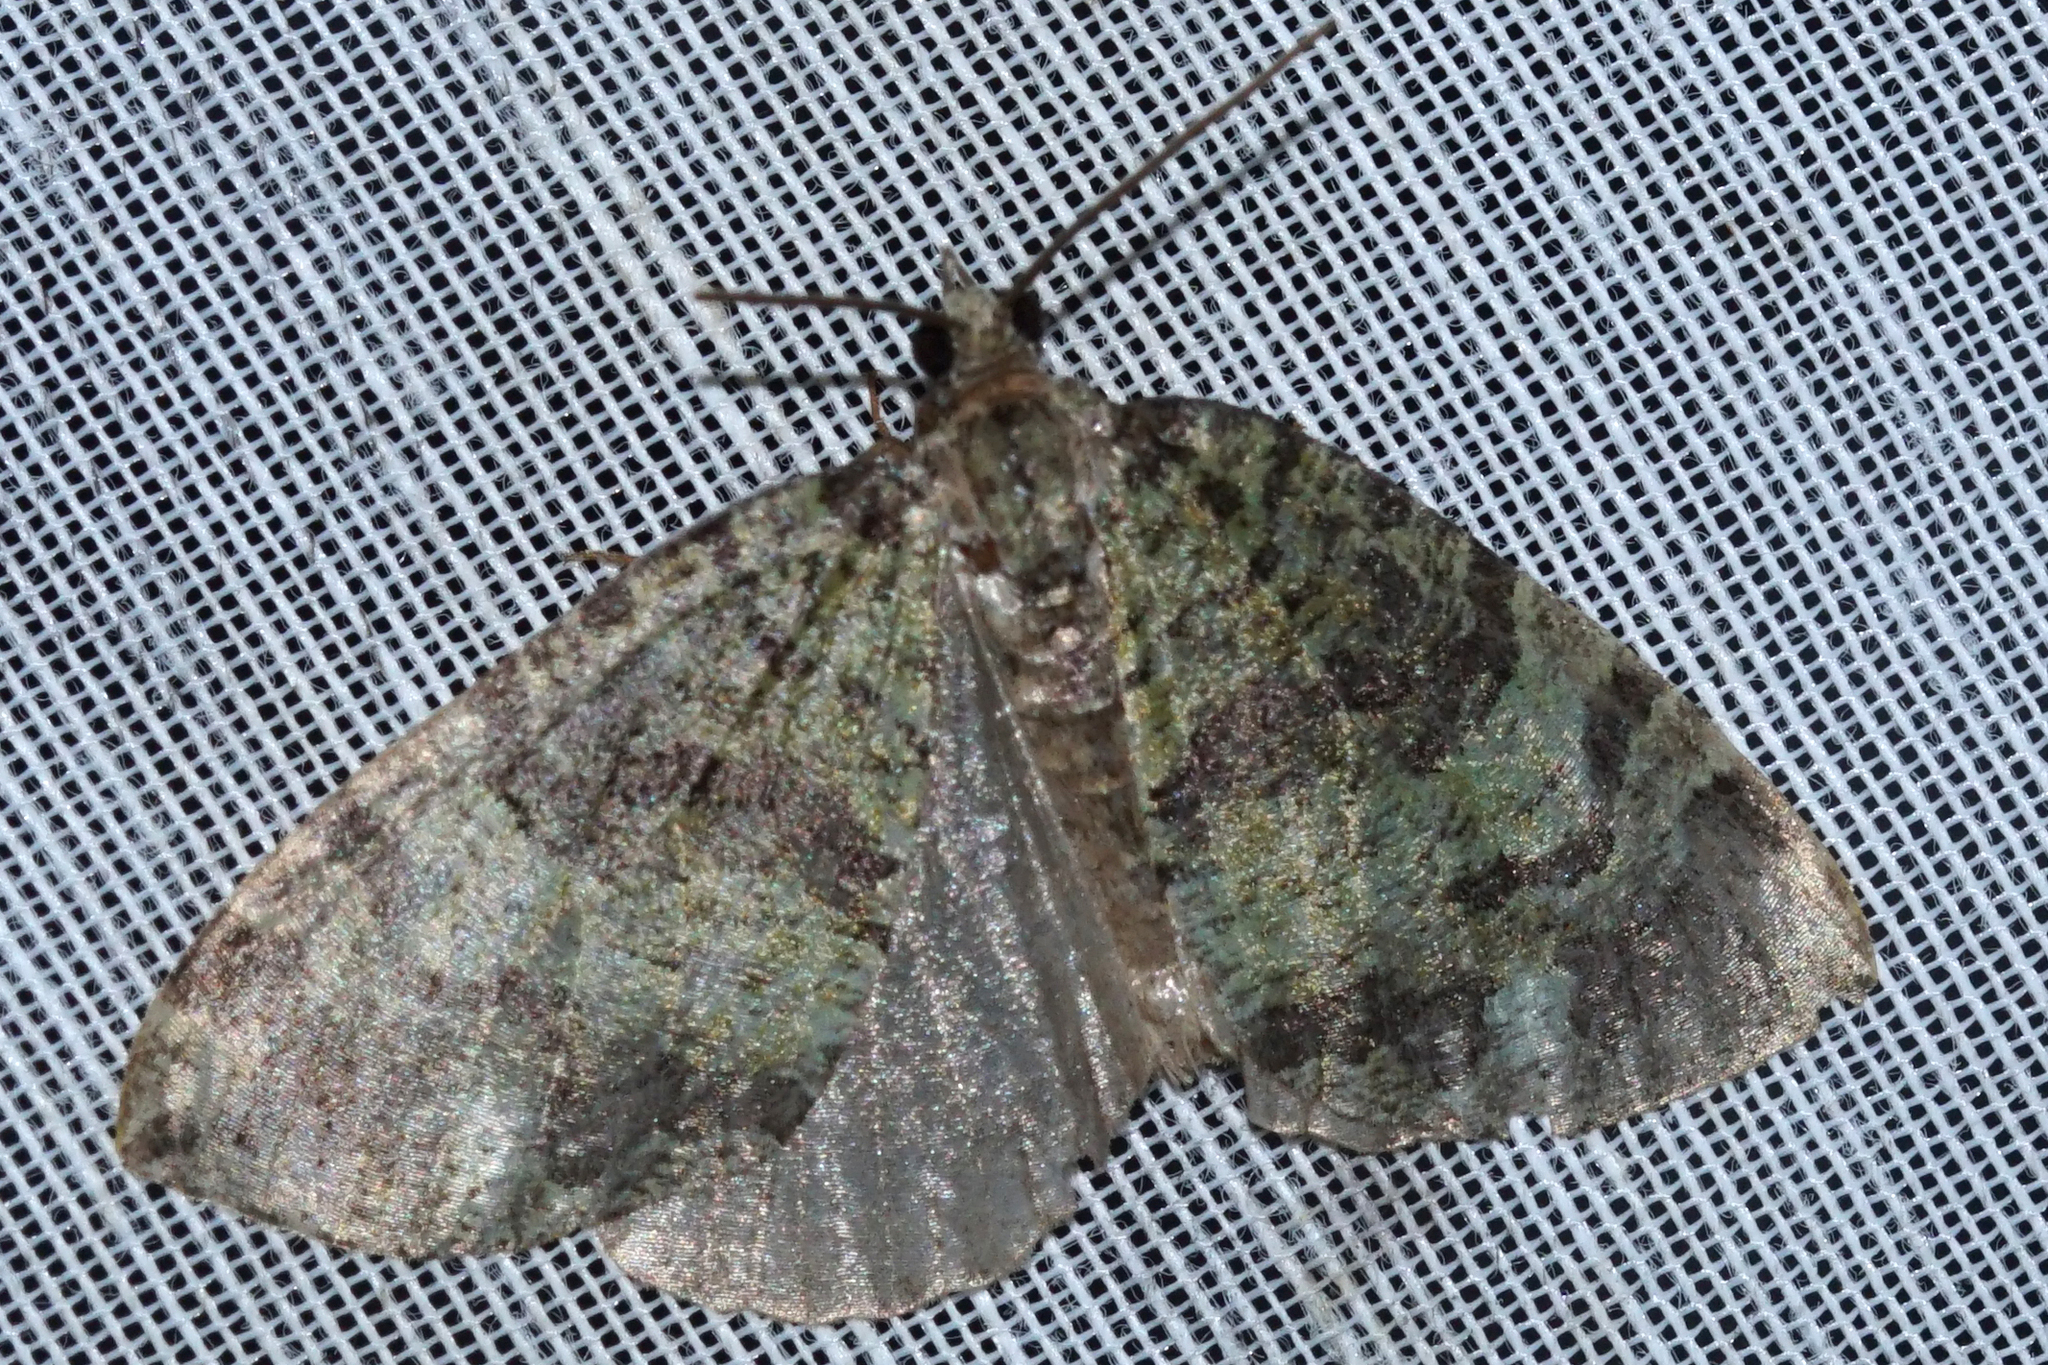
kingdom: Animalia
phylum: Arthropoda
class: Insecta
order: Lepidoptera
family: Geometridae
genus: Hydriomena
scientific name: Hydriomena furcata
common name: July highflyer
